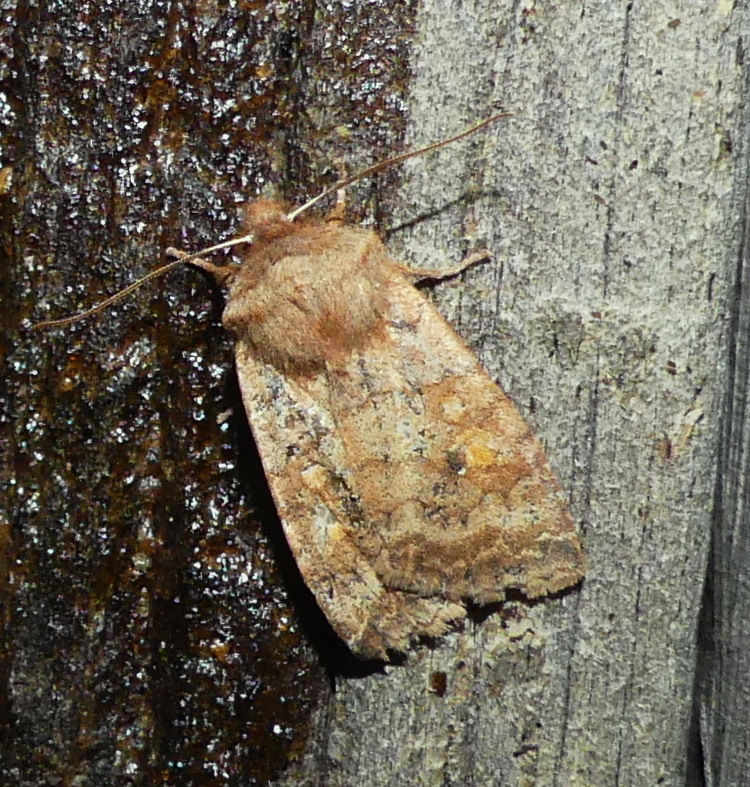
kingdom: Animalia
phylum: Arthropoda
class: Insecta
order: Lepidoptera
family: Noctuidae
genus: Eupsilia
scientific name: Eupsilia tristigmata
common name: Three-spotted sallow
